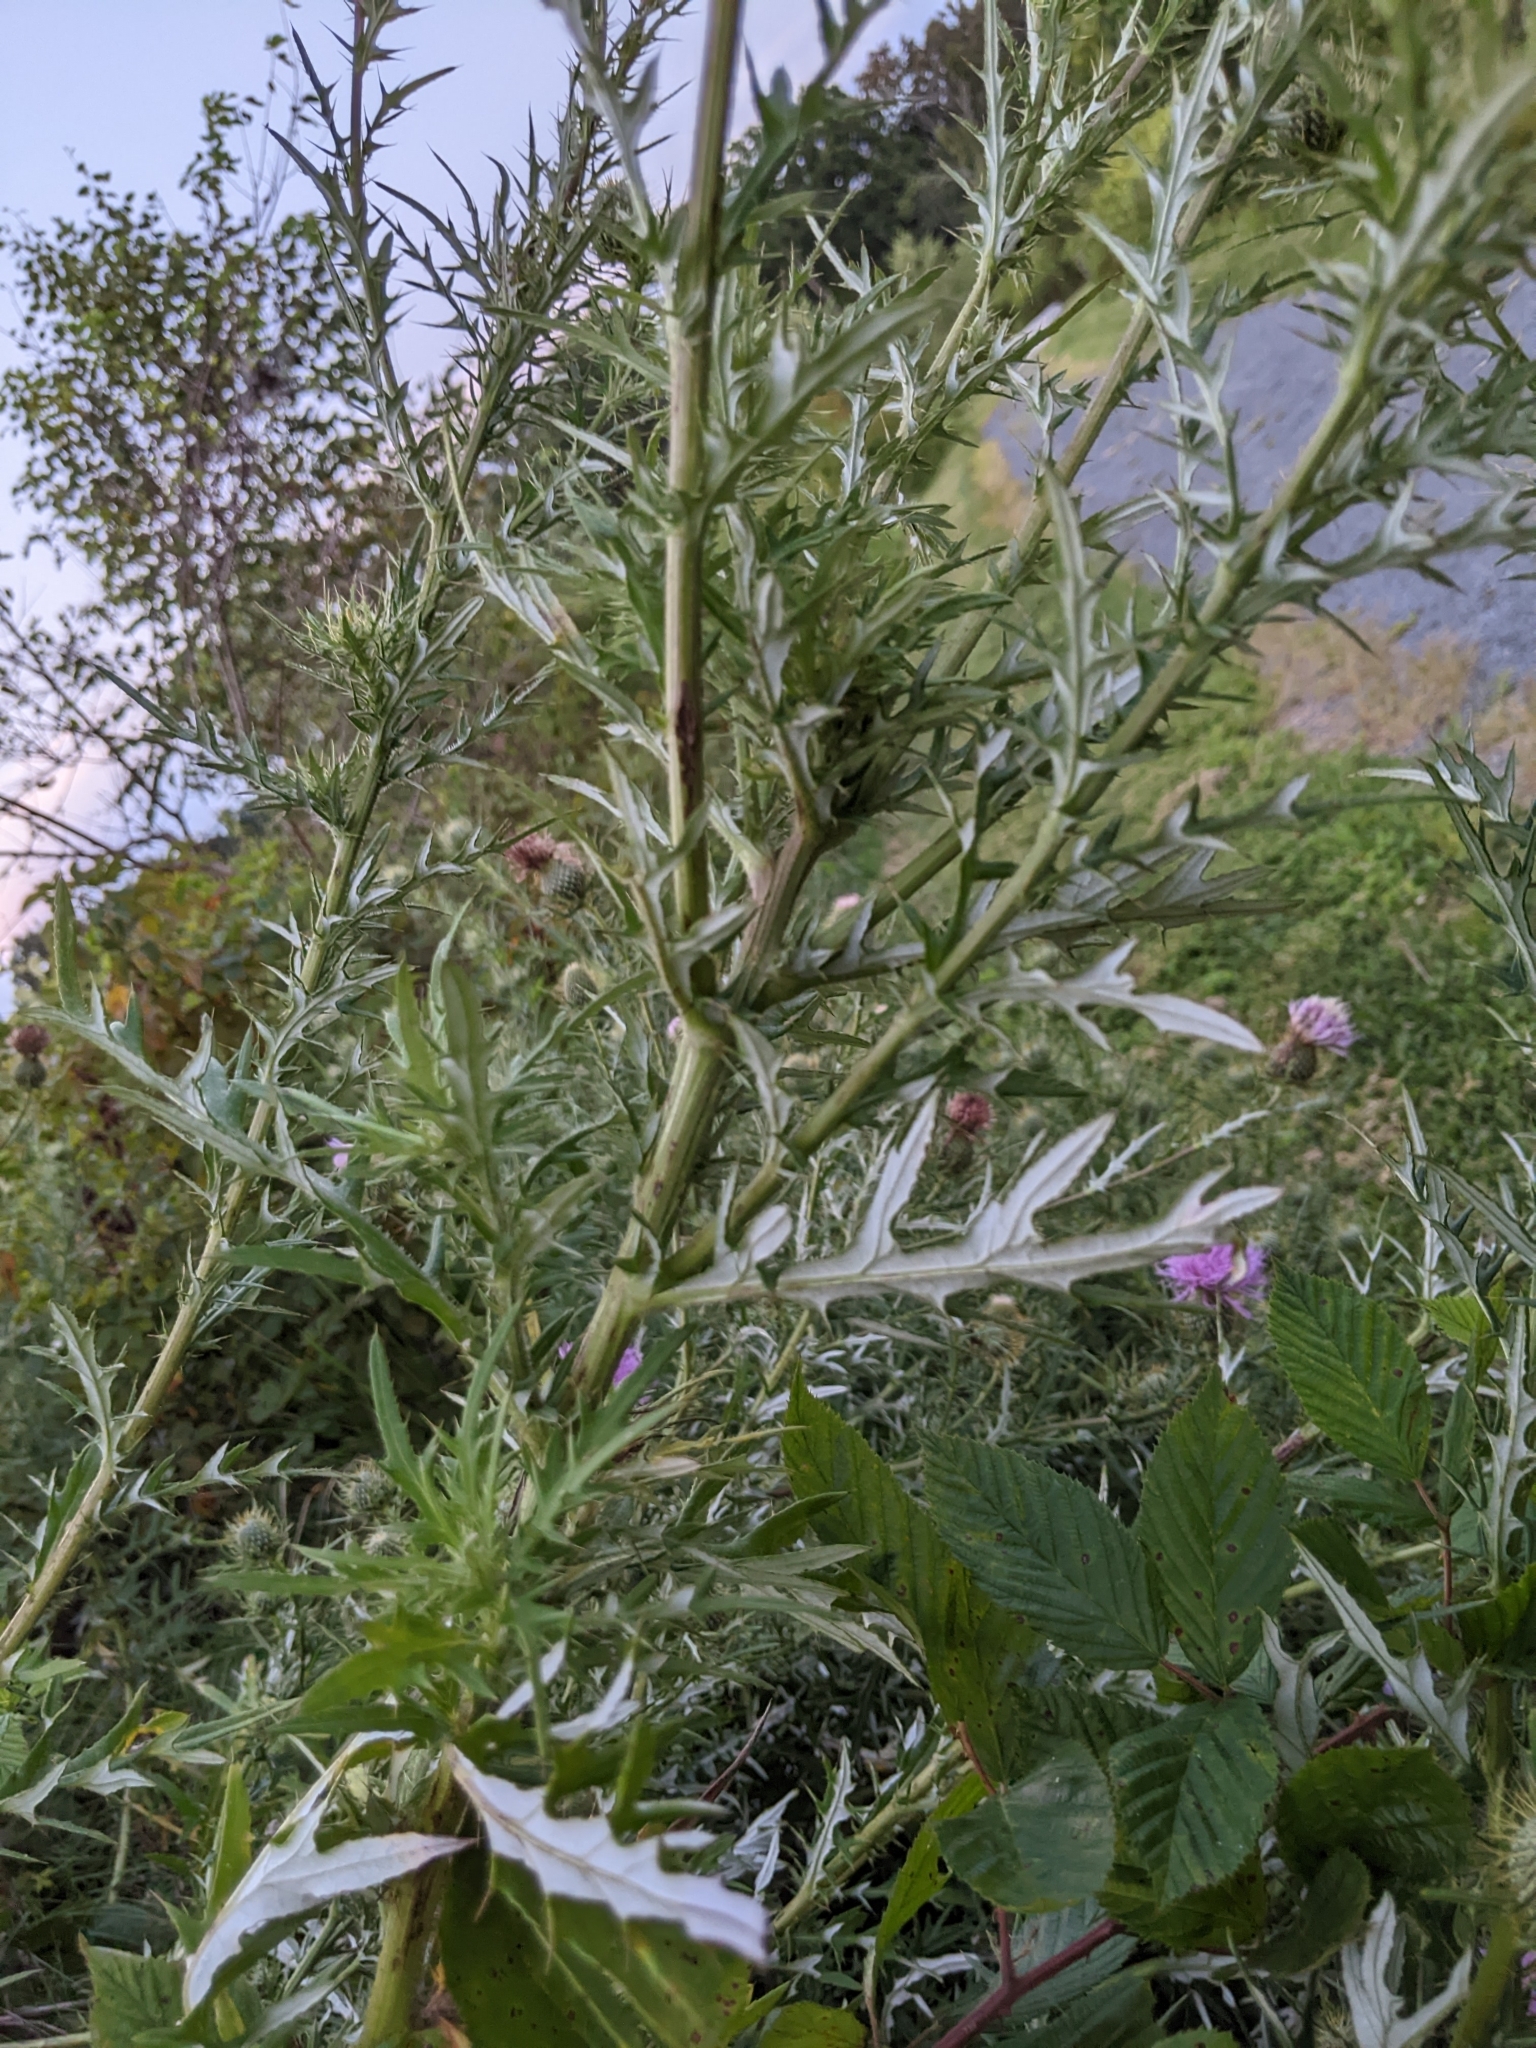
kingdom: Plantae
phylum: Tracheophyta
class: Magnoliopsida
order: Asterales
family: Asteraceae
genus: Cirsium
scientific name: Cirsium discolor
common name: Field thistle
